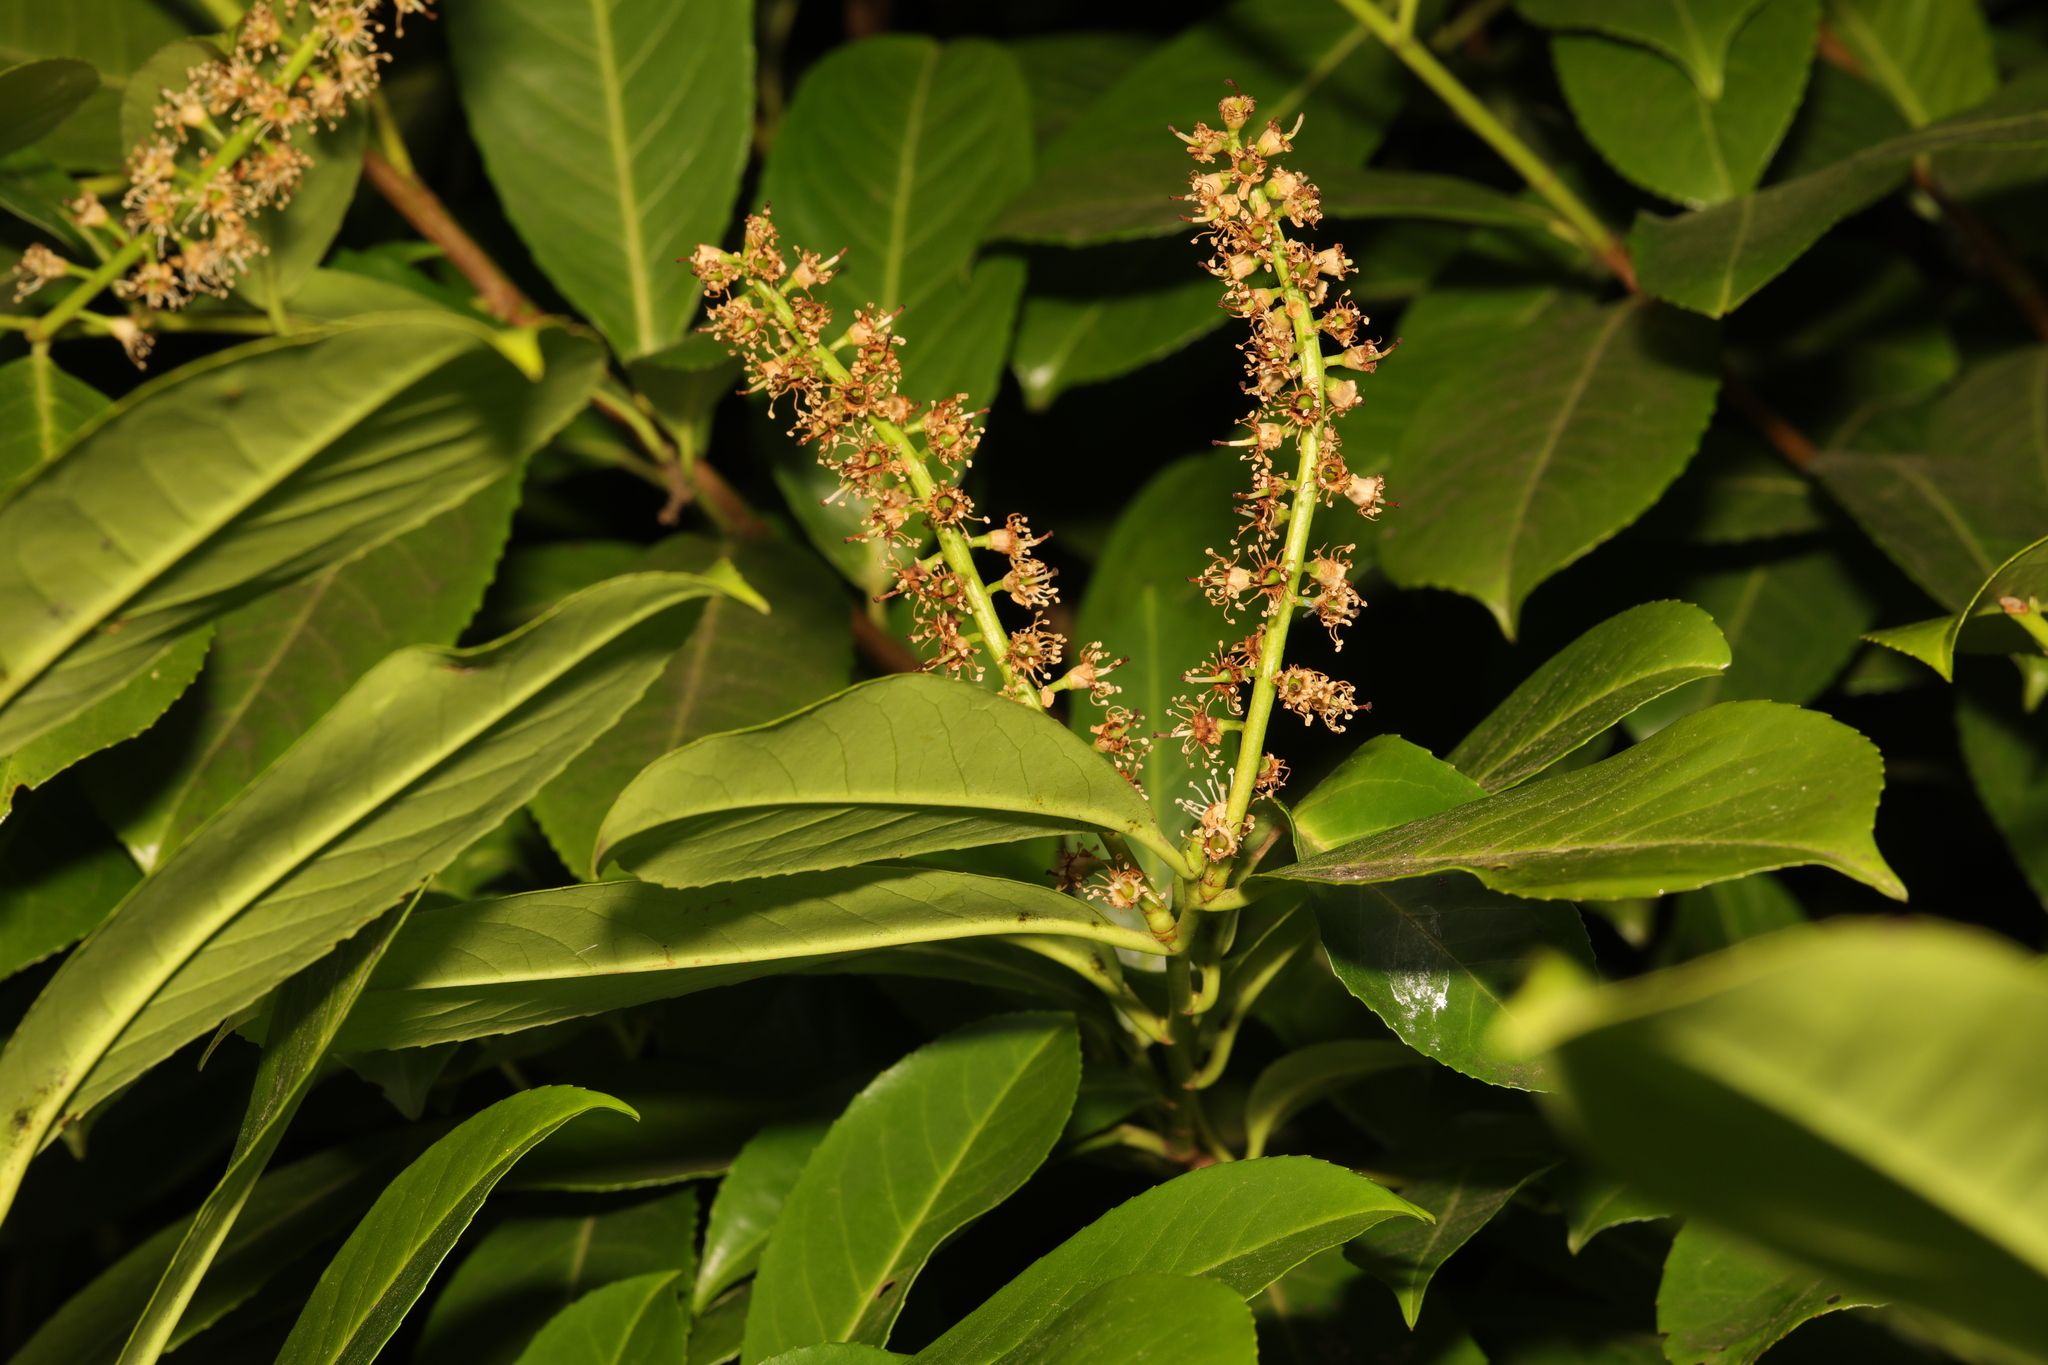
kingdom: Plantae
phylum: Tracheophyta
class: Magnoliopsida
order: Rosales
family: Rosaceae
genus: Prunus
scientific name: Prunus laurocerasus
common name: Cherry laurel
